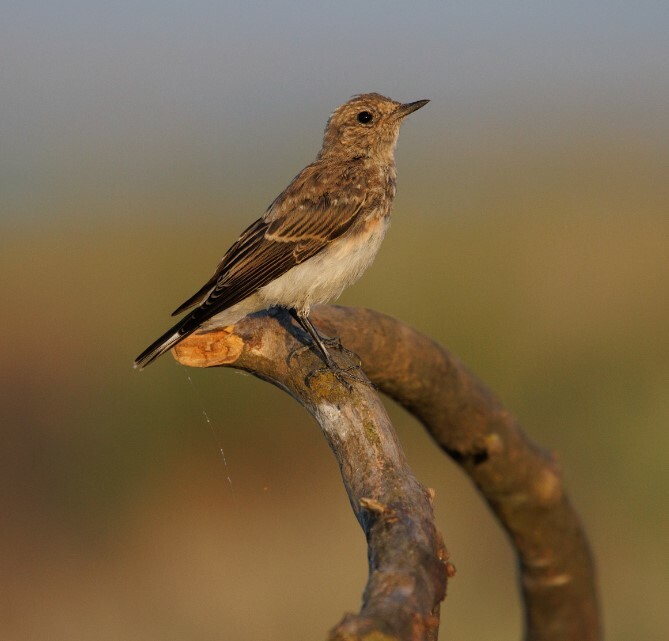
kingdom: Animalia
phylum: Chordata
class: Aves
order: Passeriformes
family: Muscicapidae
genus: Oenanthe
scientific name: Oenanthe pleschanka
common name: Pied wheatear
